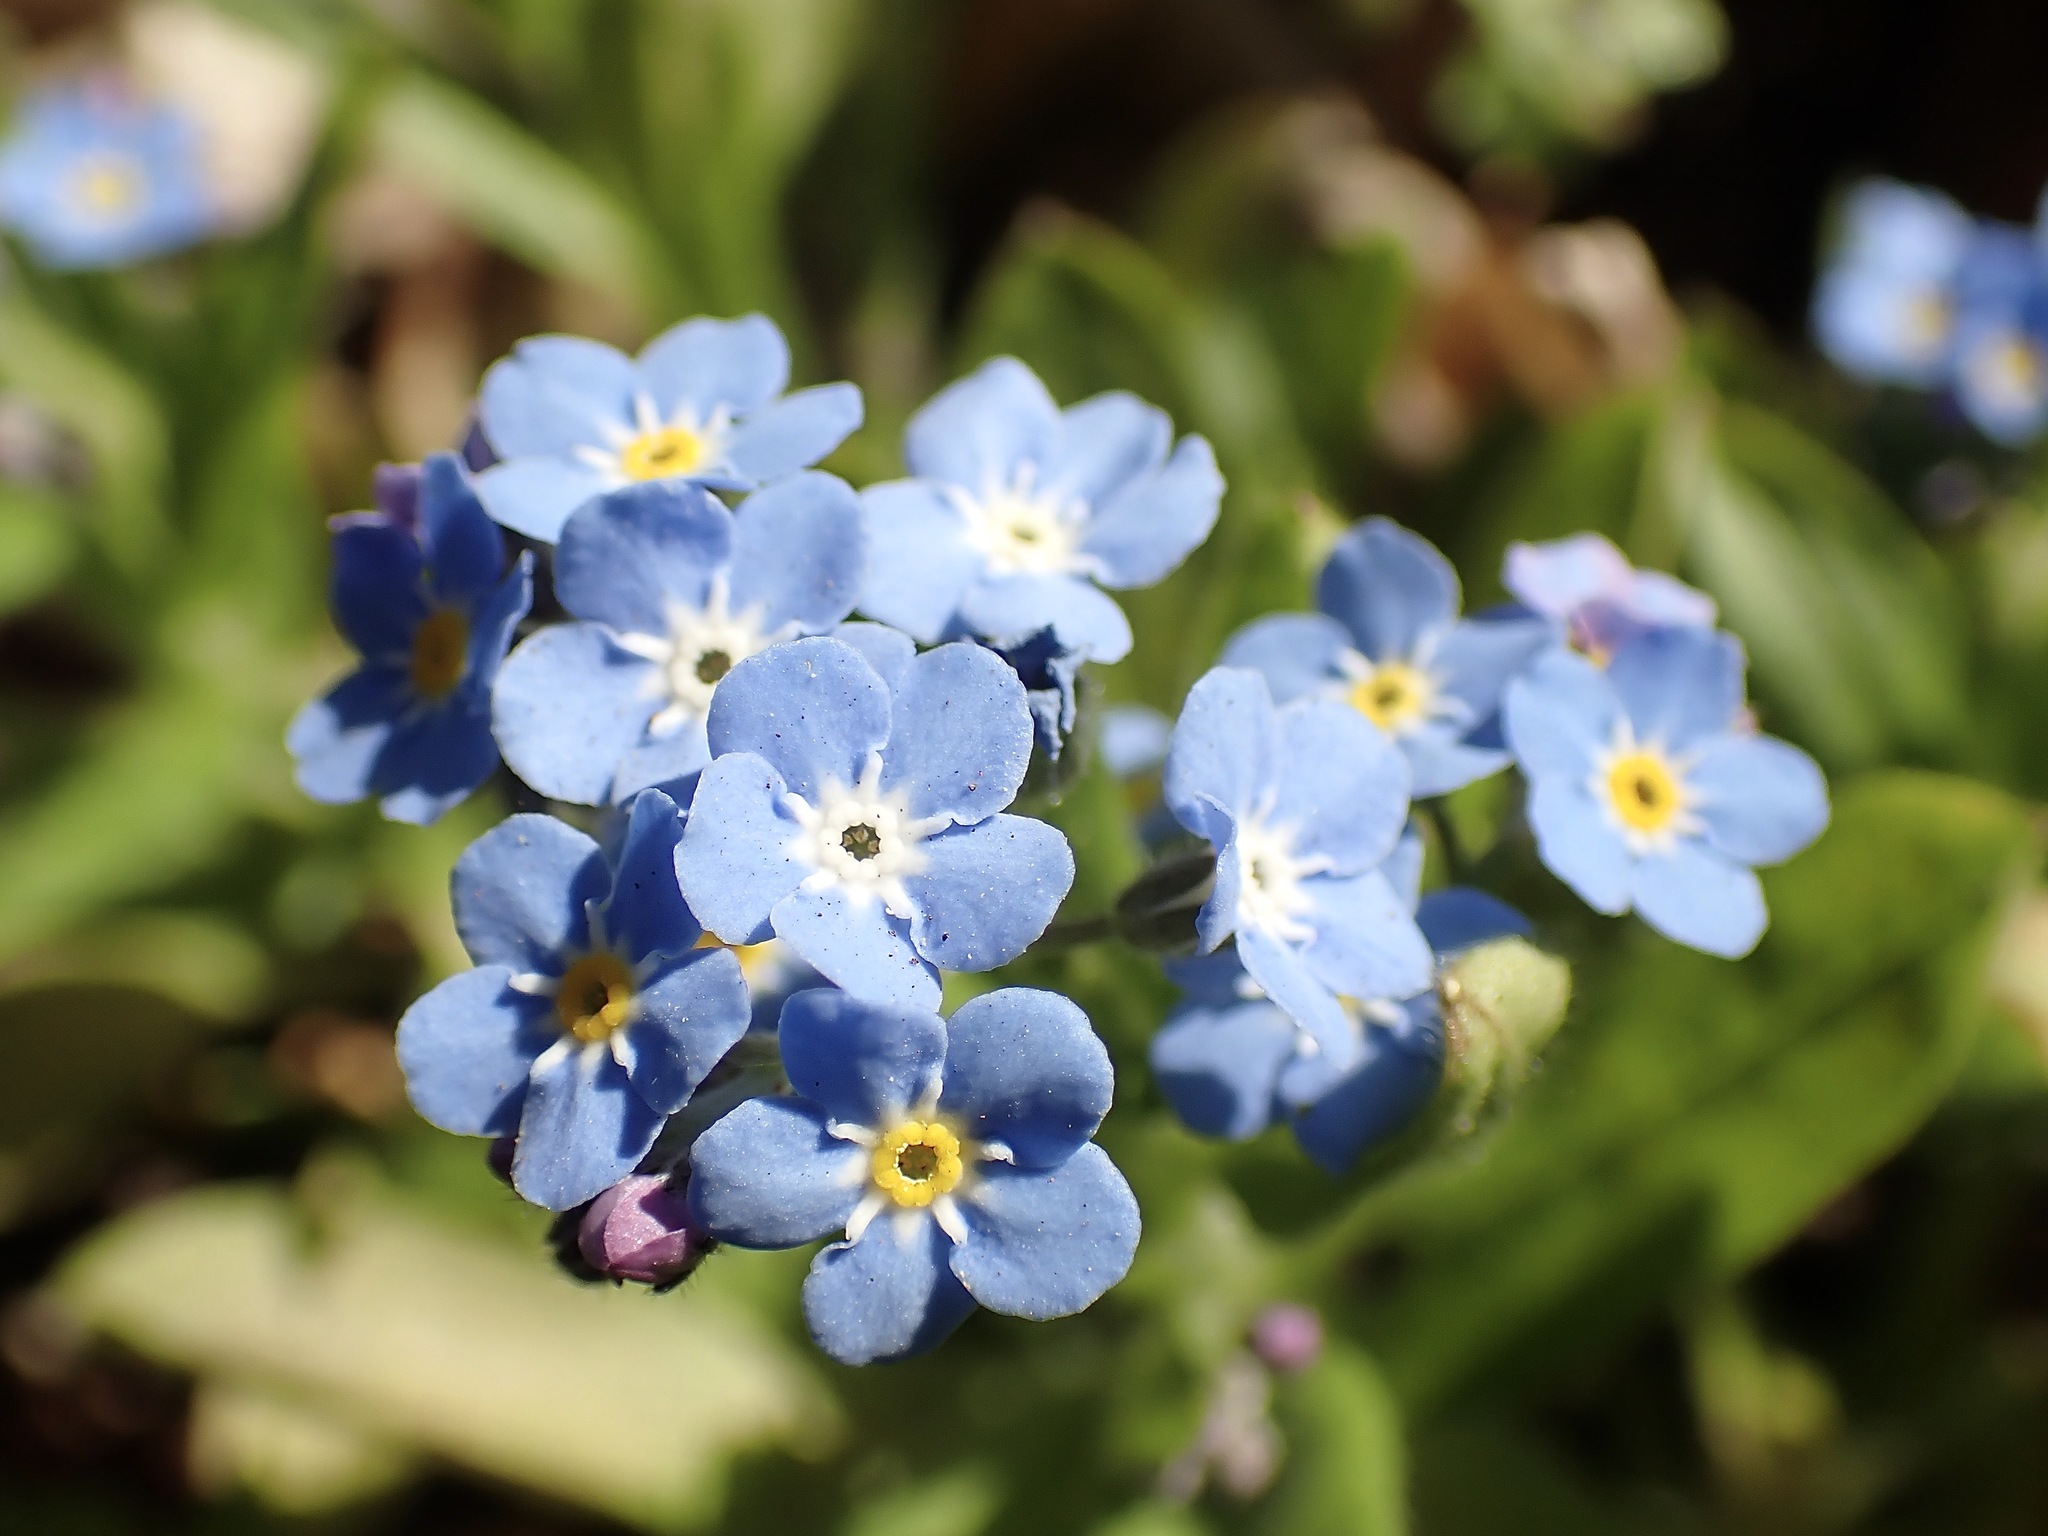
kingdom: Plantae
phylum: Tracheophyta
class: Magnoliopsida
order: Boraginales
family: Boraginaceae
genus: Myosotis
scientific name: Myosotis sylvatica
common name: Wood forget-me-not
